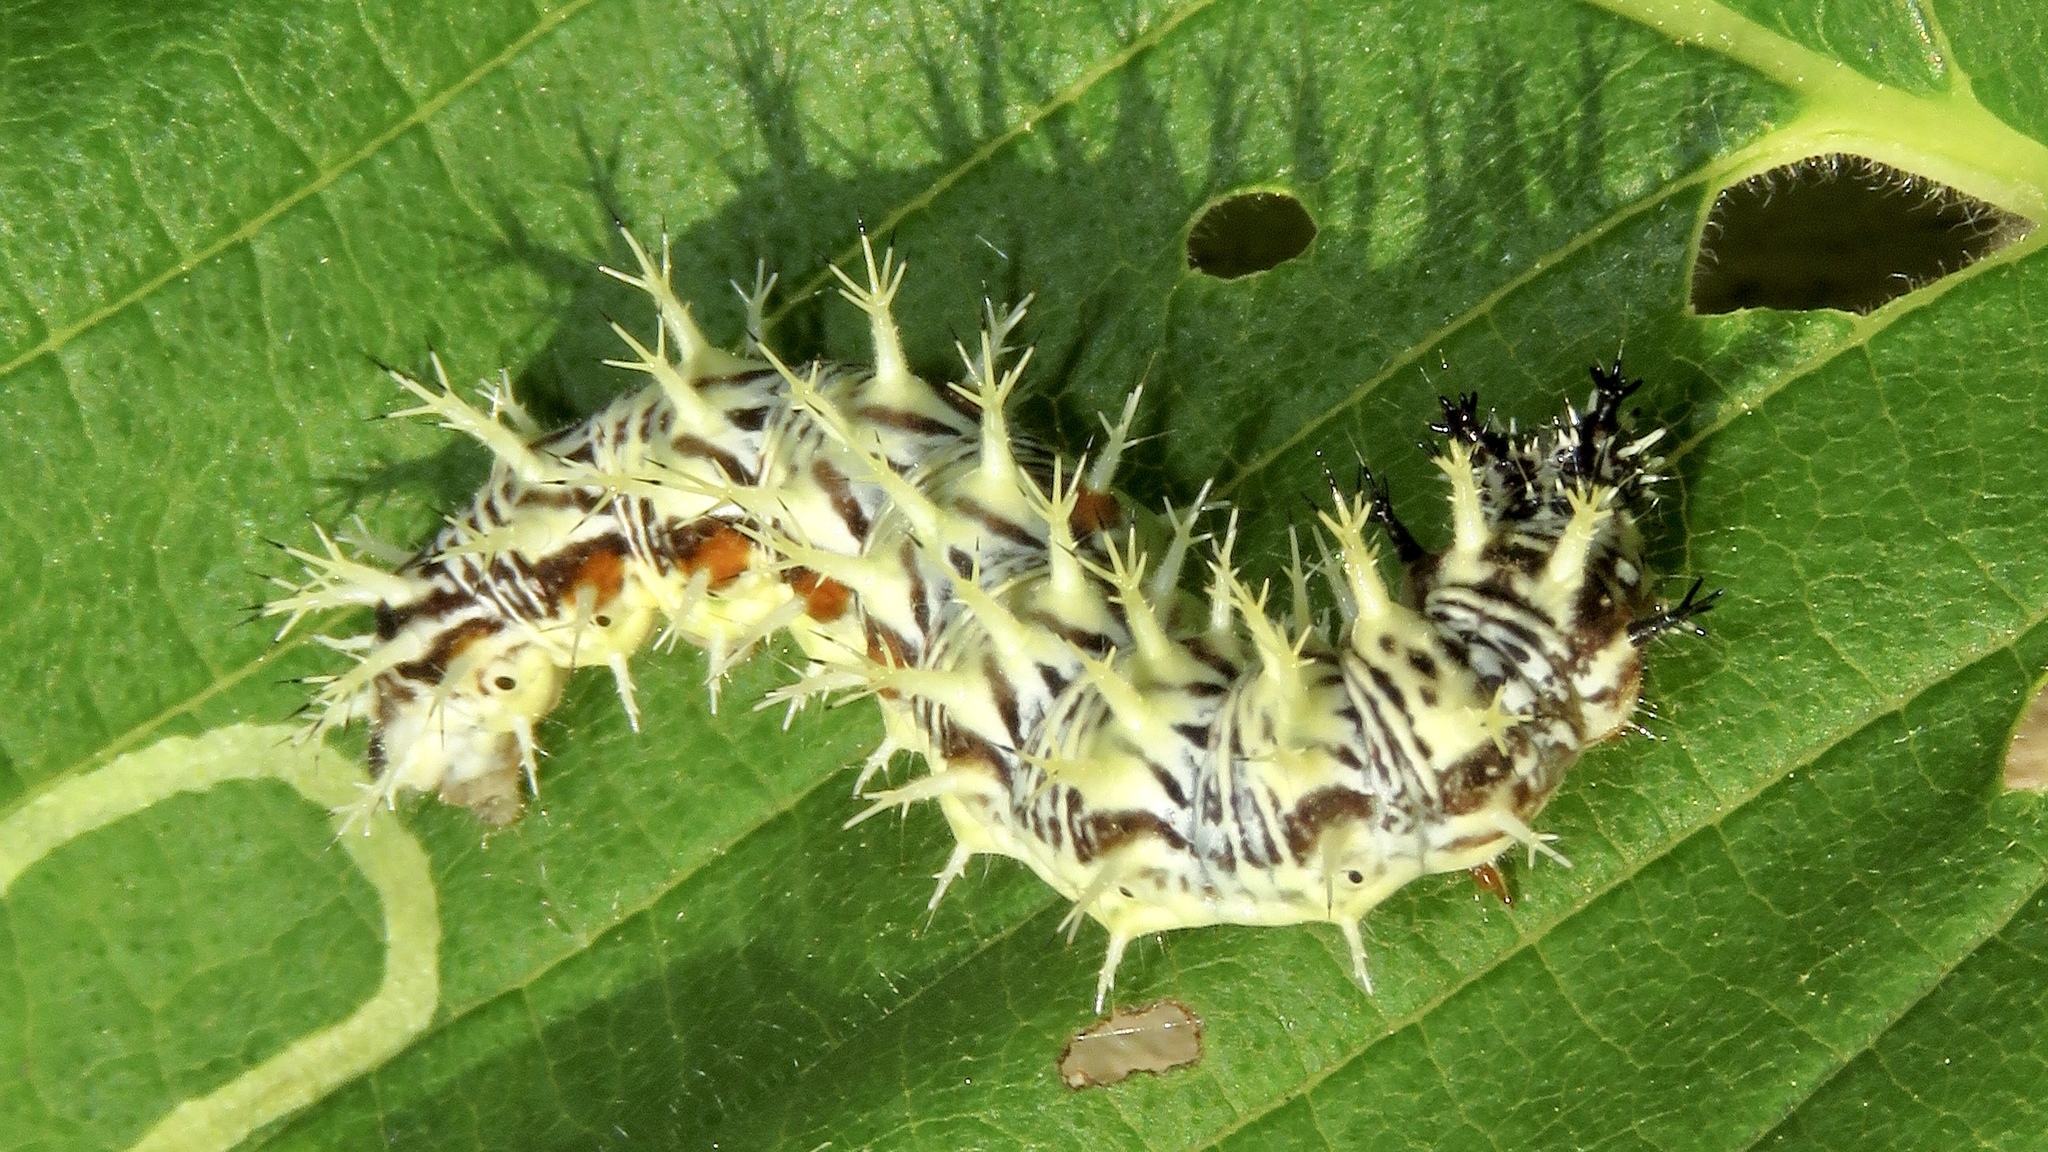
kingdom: Animalia
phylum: Arthropoda
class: Insecta
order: Lepidoptera
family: Nymphalidae
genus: Polygonia
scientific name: Polygonia comma
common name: Eastern comma
